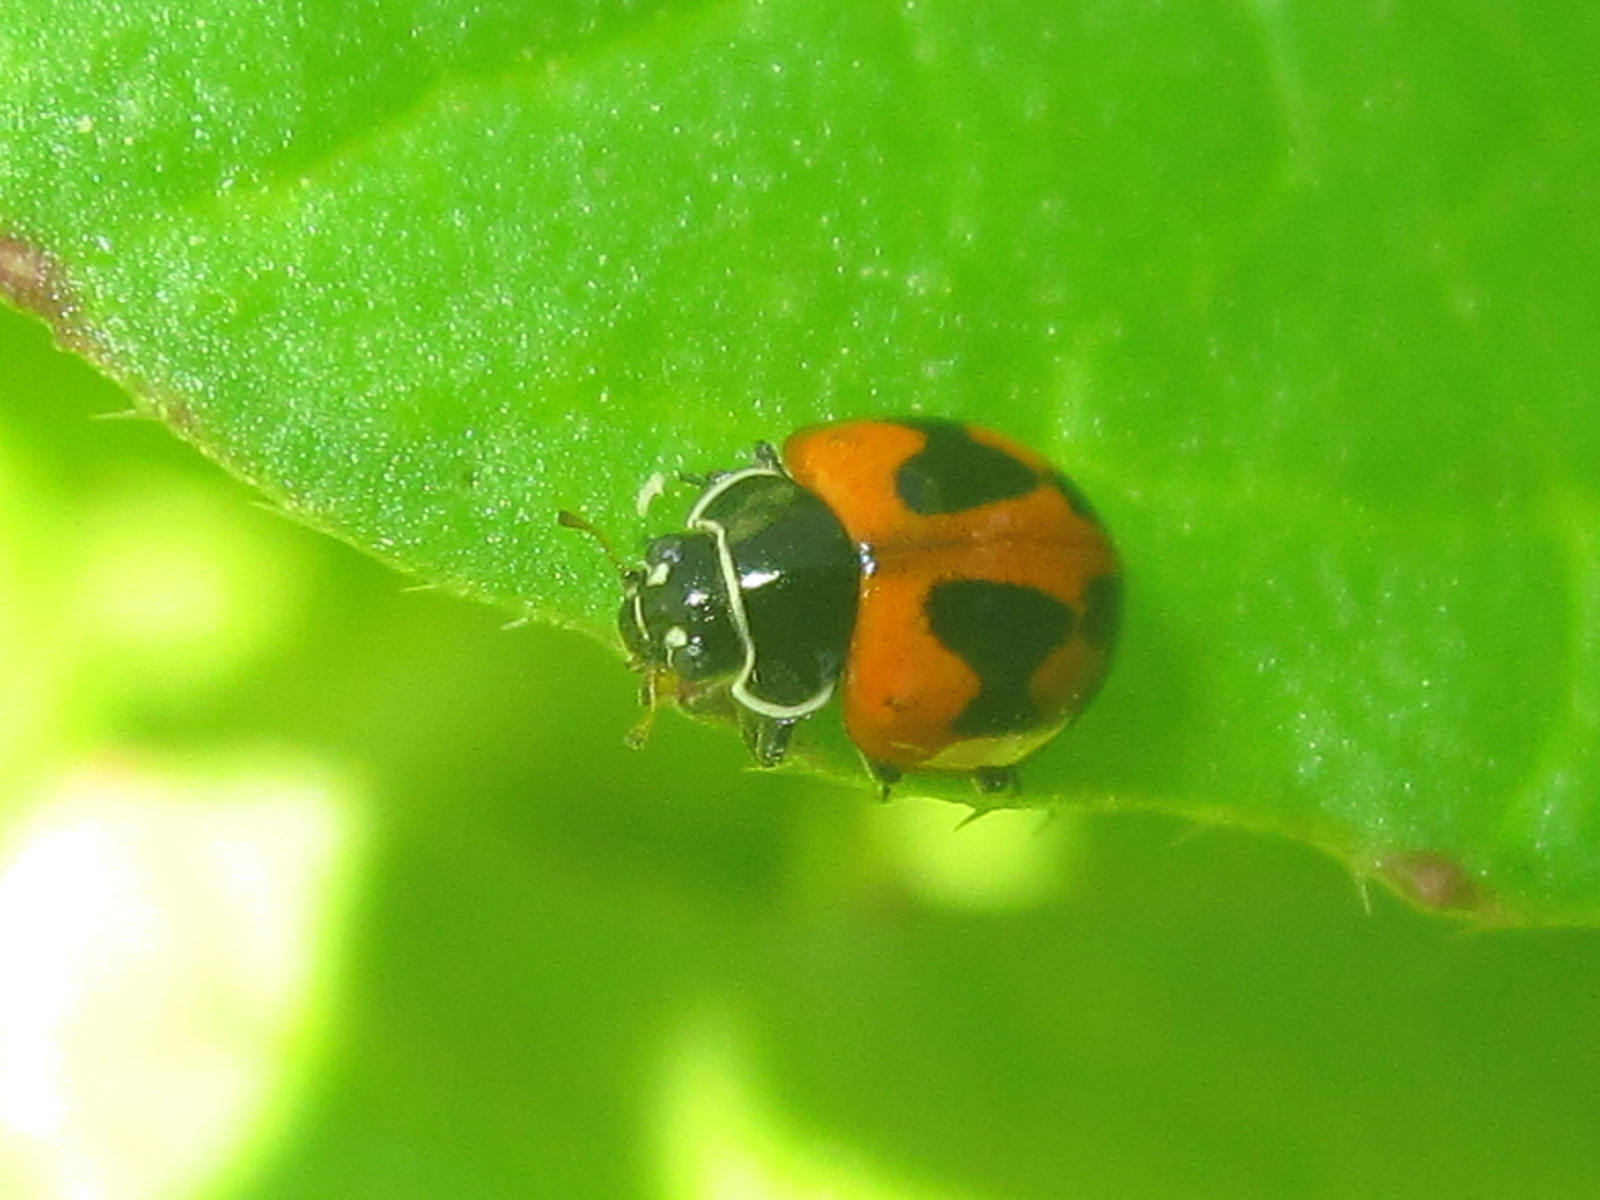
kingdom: Animalia
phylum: Arthropoda
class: Insecta
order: Coleoptera
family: Coccinellidae
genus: Cycloneda
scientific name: Cycloneda eryngii
